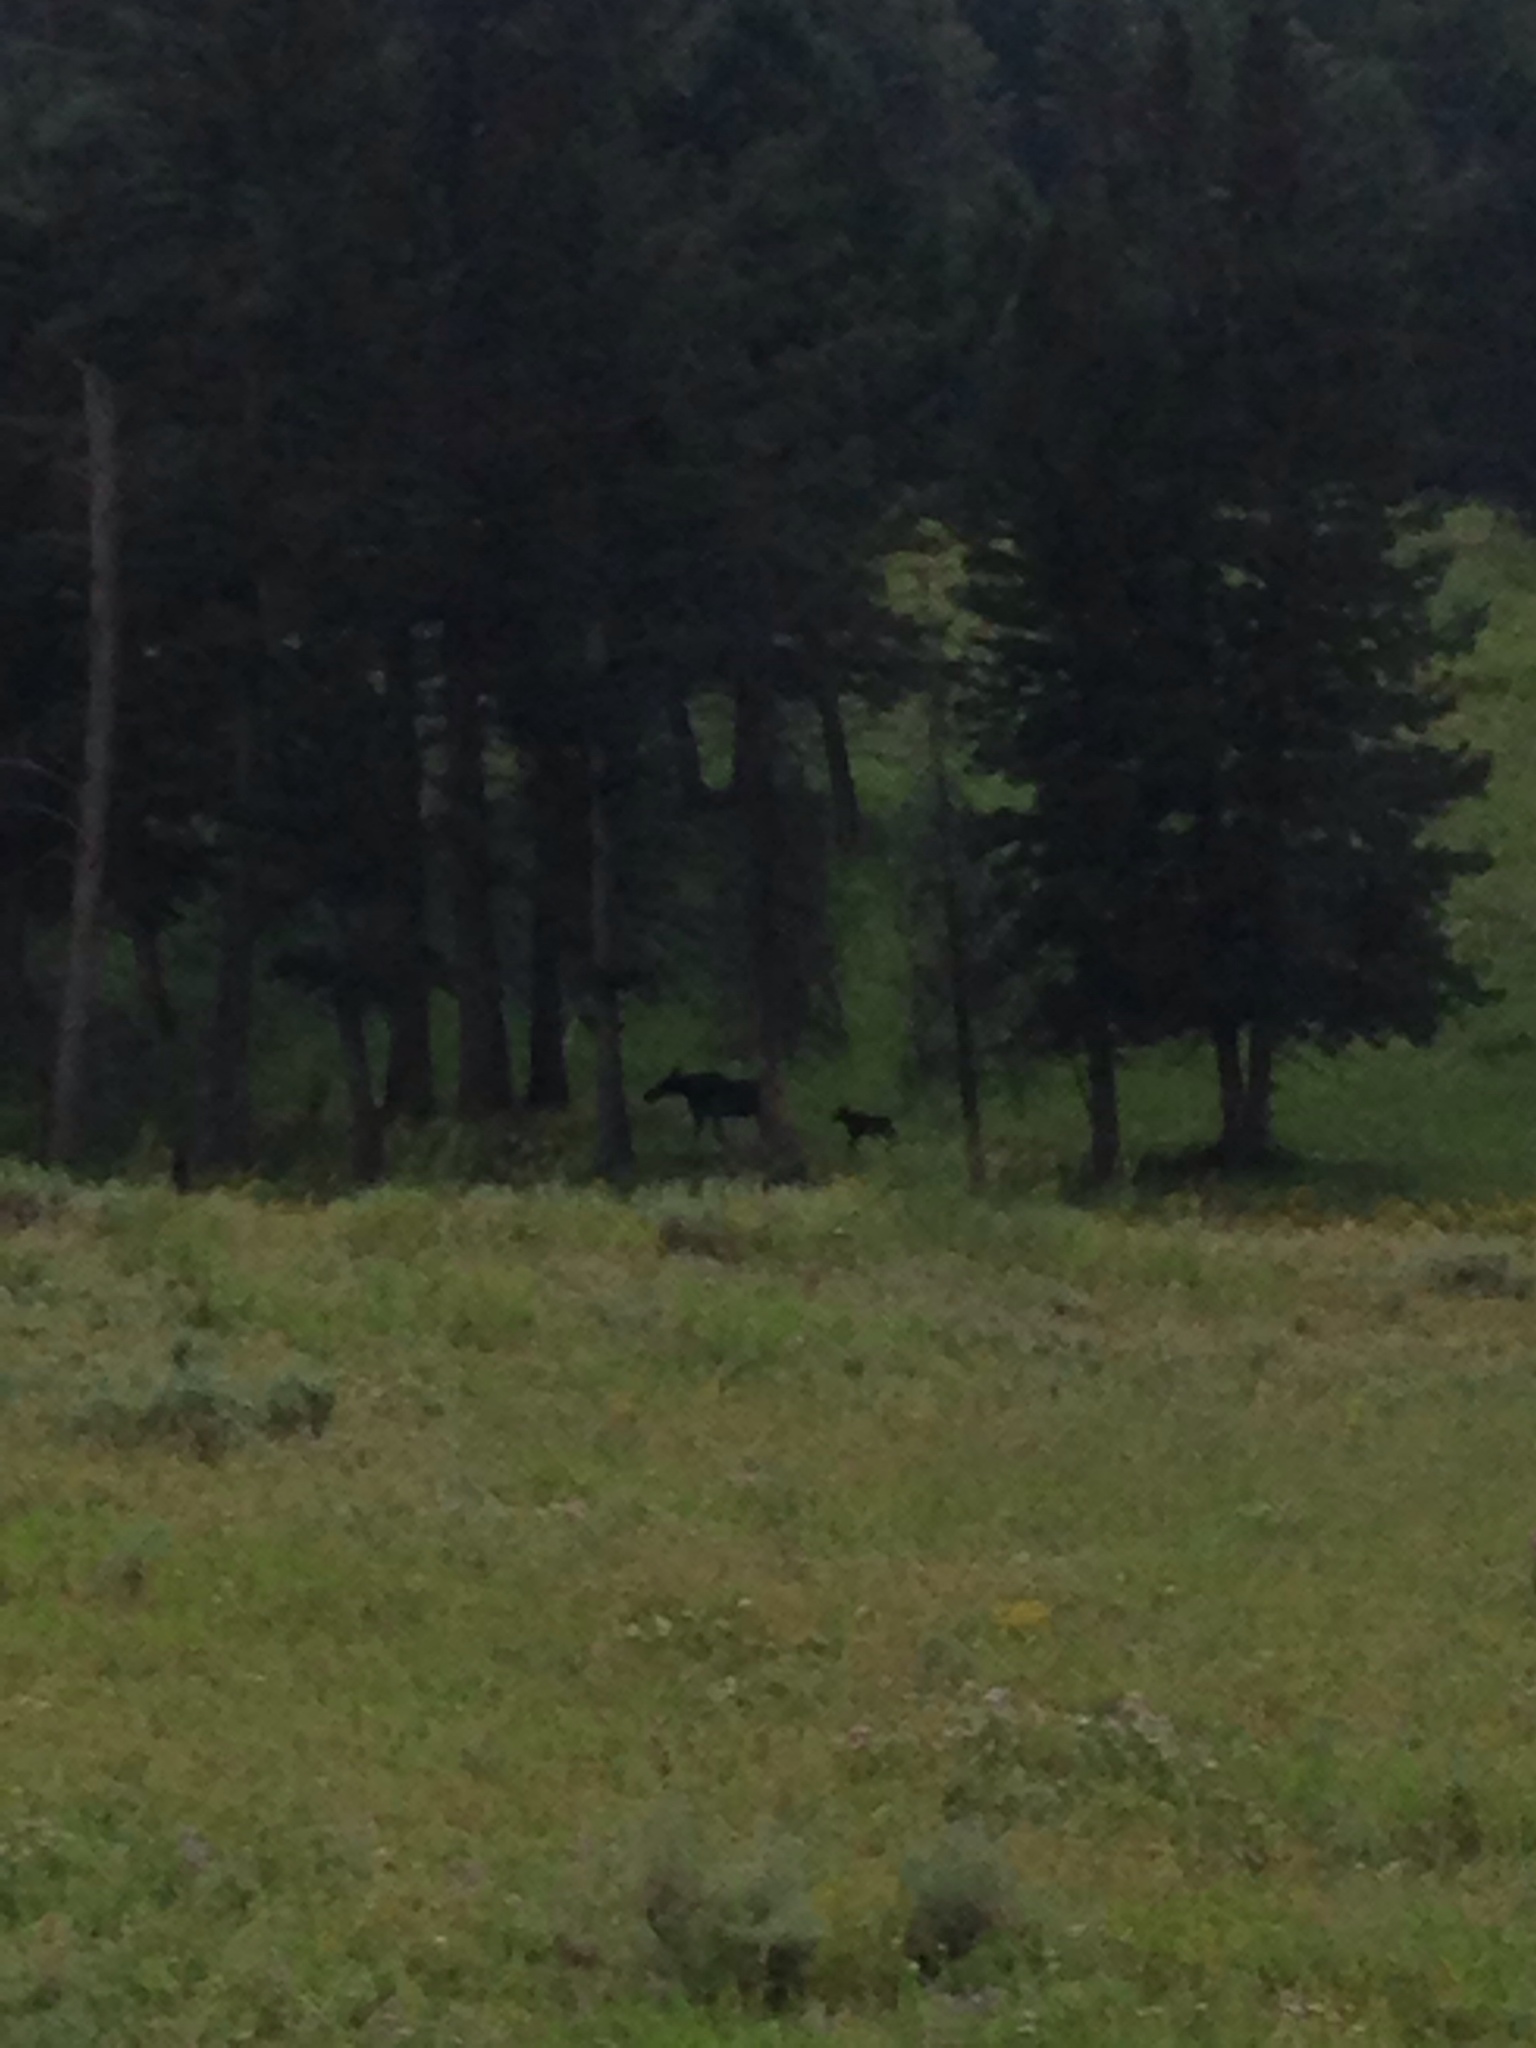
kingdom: Animalia
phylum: Chordata
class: Mammalia
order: Artiodactyla
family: Cervidae
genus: Alces
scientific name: Alces alces
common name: Moose
